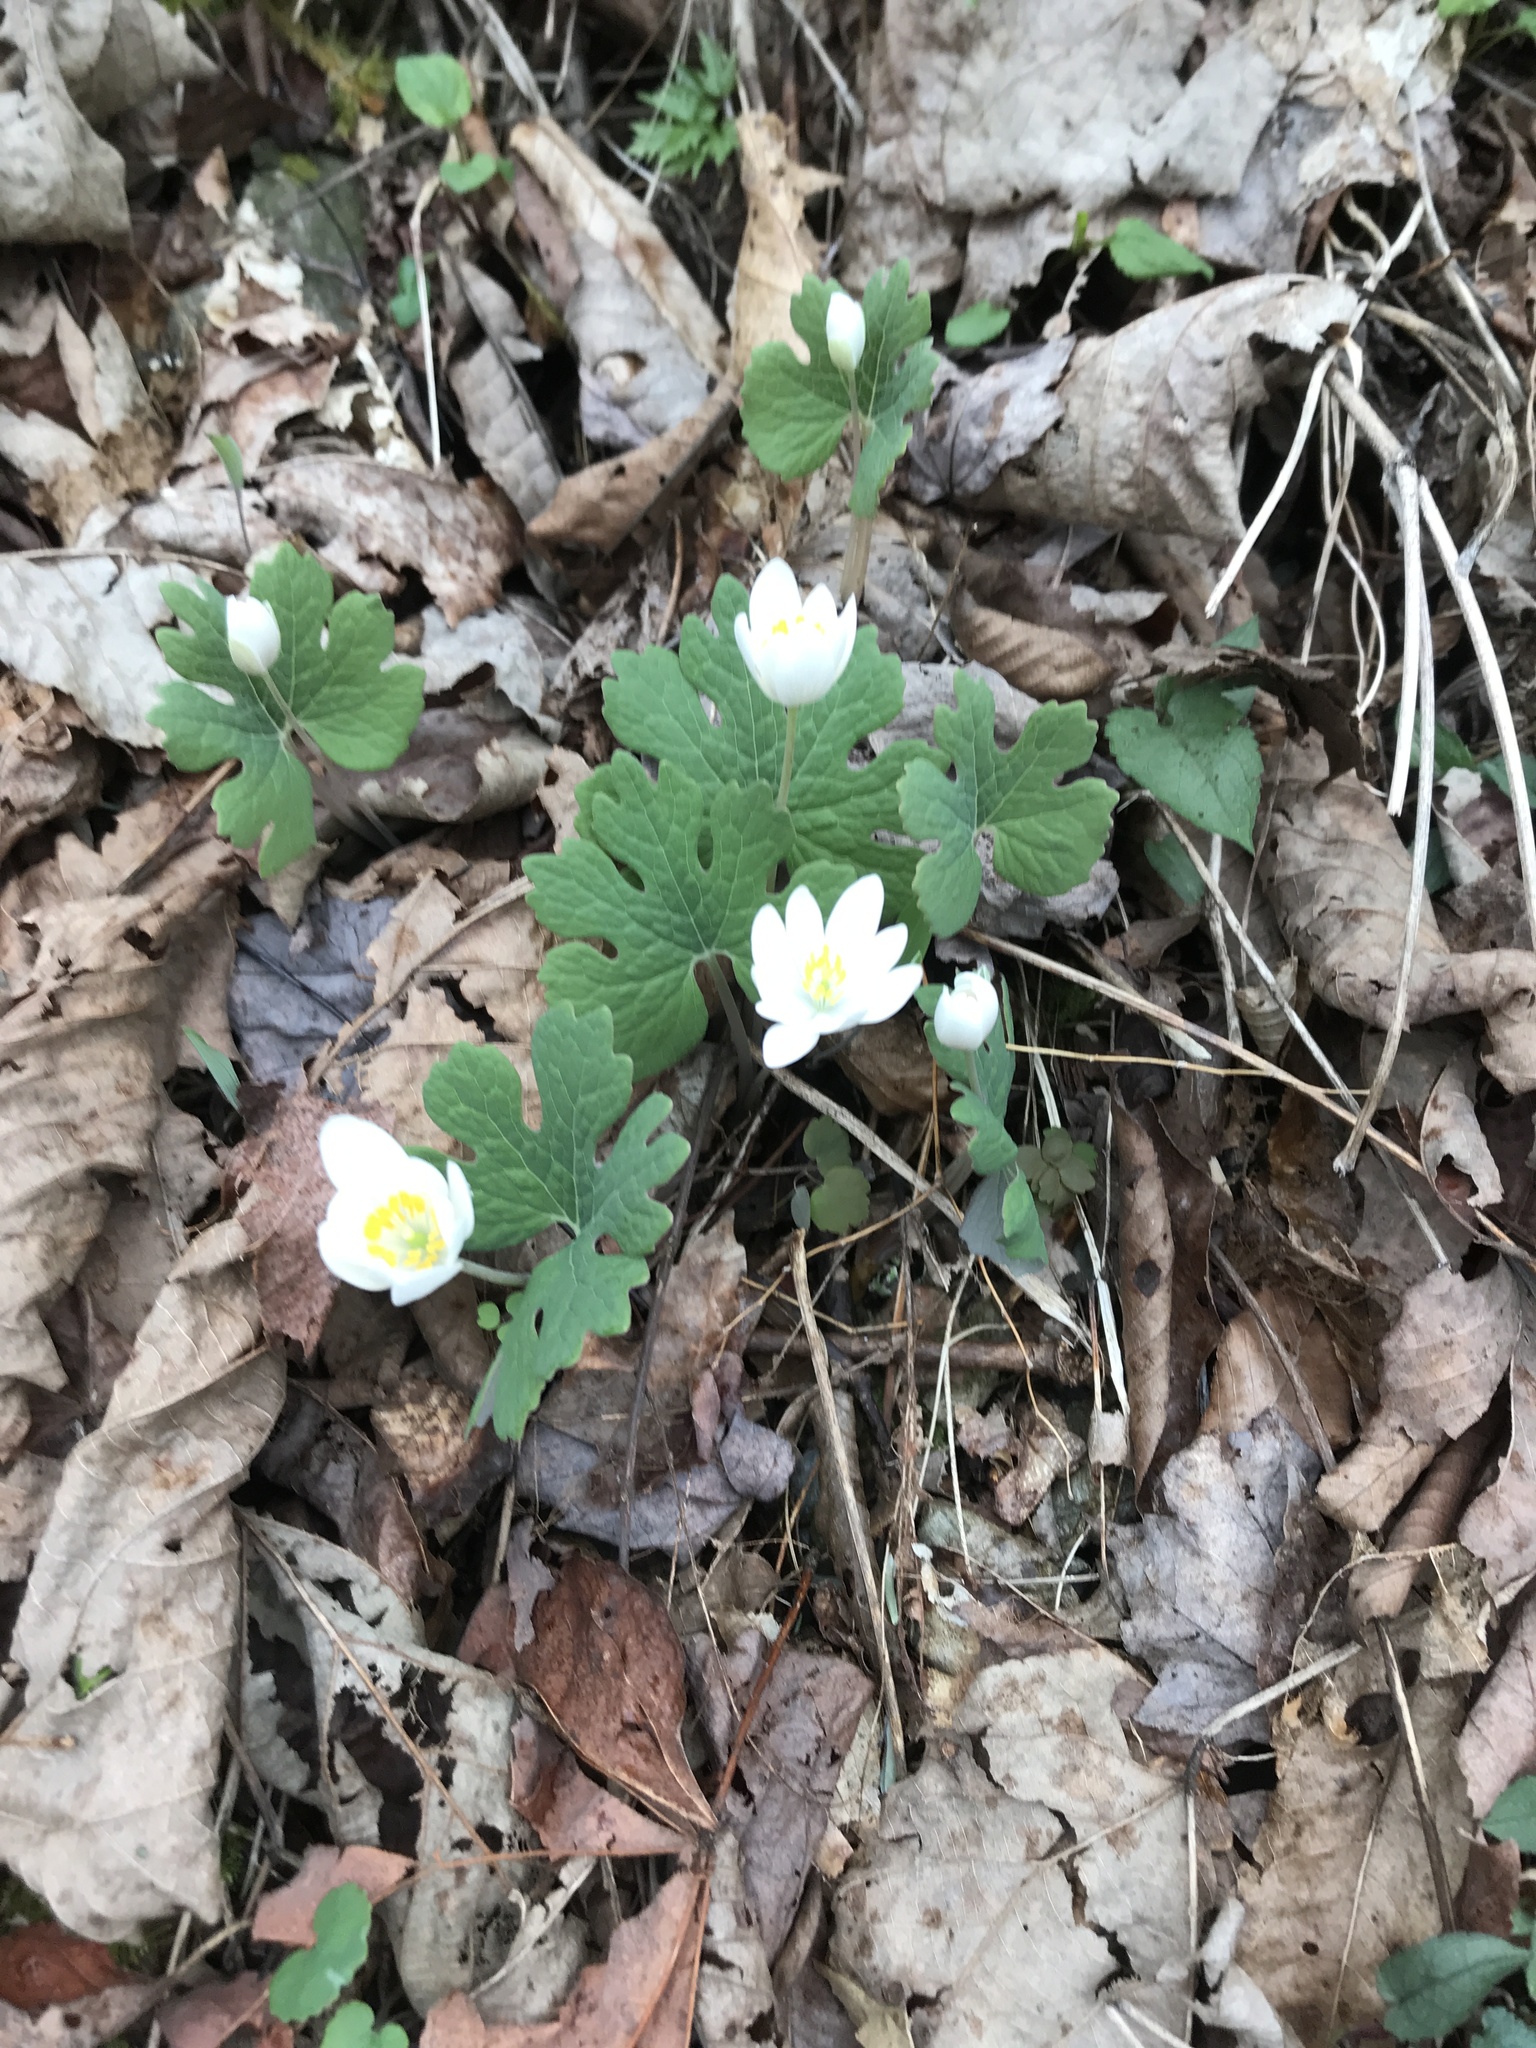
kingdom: Plantae
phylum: Tracheophyta
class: Magnoliopsida
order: Ranunculales
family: Papaveraceae
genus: Sanguinaria
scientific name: Sanguinaria canadensis
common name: Bloodroot
